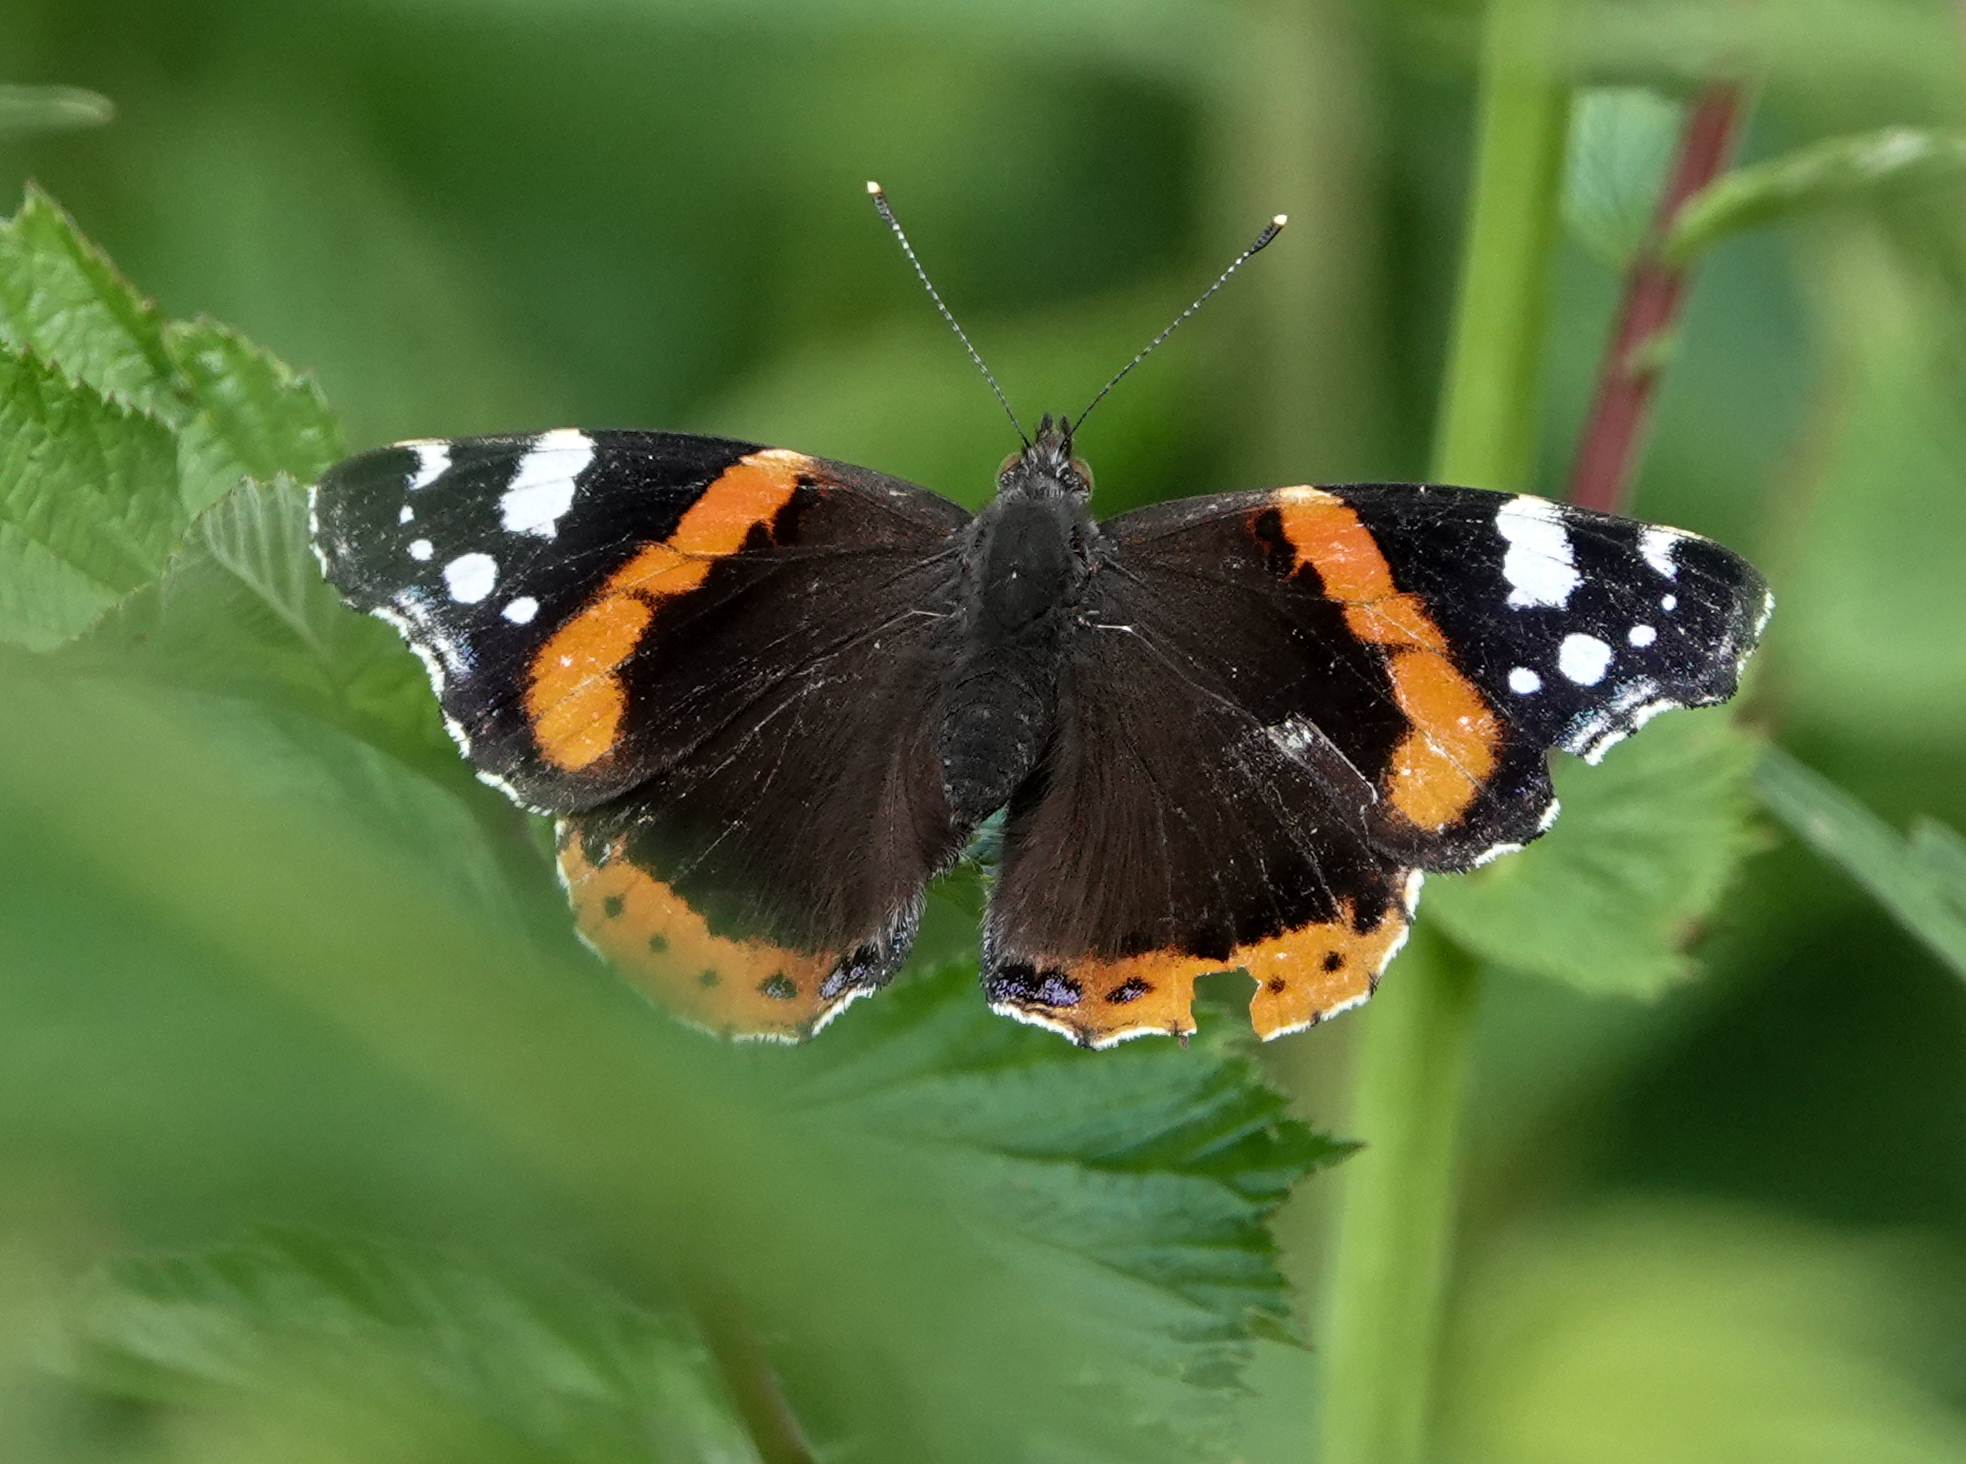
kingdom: Animalia
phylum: Arthropoda
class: Insecta
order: Lepidoptera
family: Nymphalidae
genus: Vanessa
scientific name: Vanessa atalanta
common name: Red admiral
